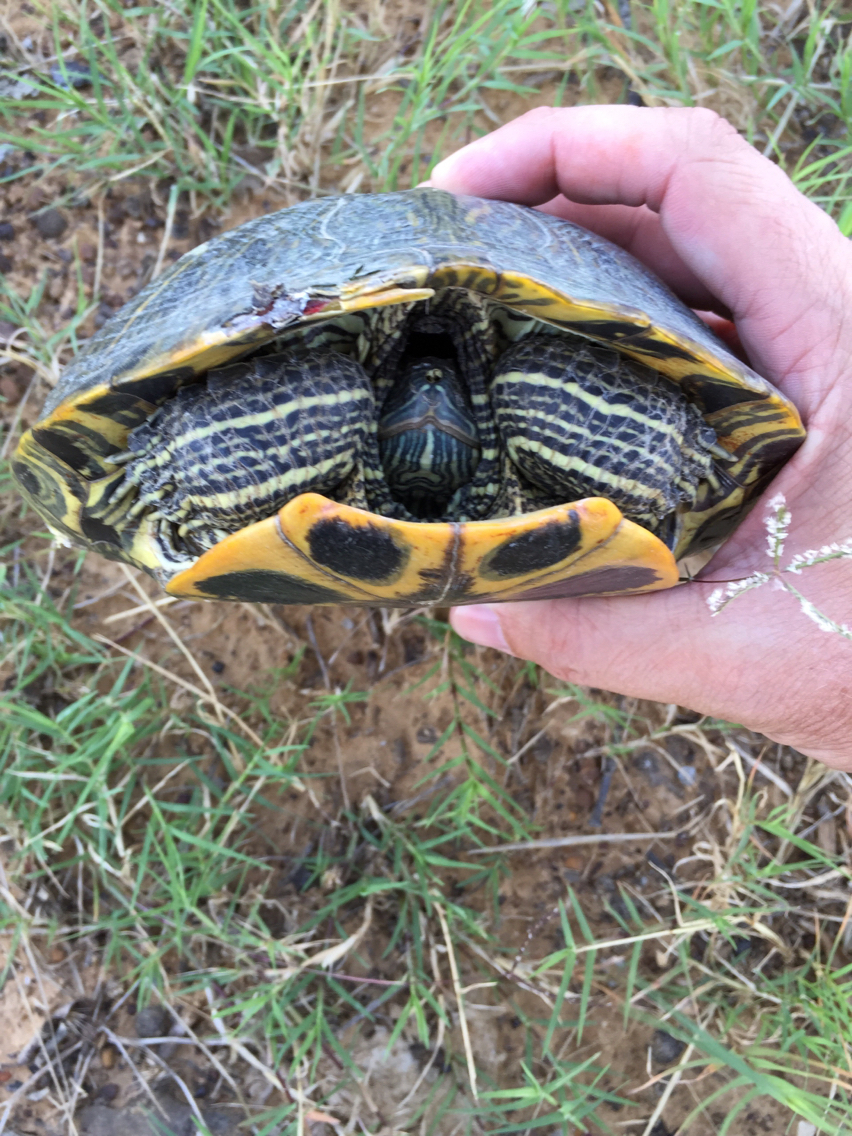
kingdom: Animalia
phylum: Chordata
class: Testudines
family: Emydidae
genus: Trachemys
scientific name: Trachemys scripta
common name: Slider
